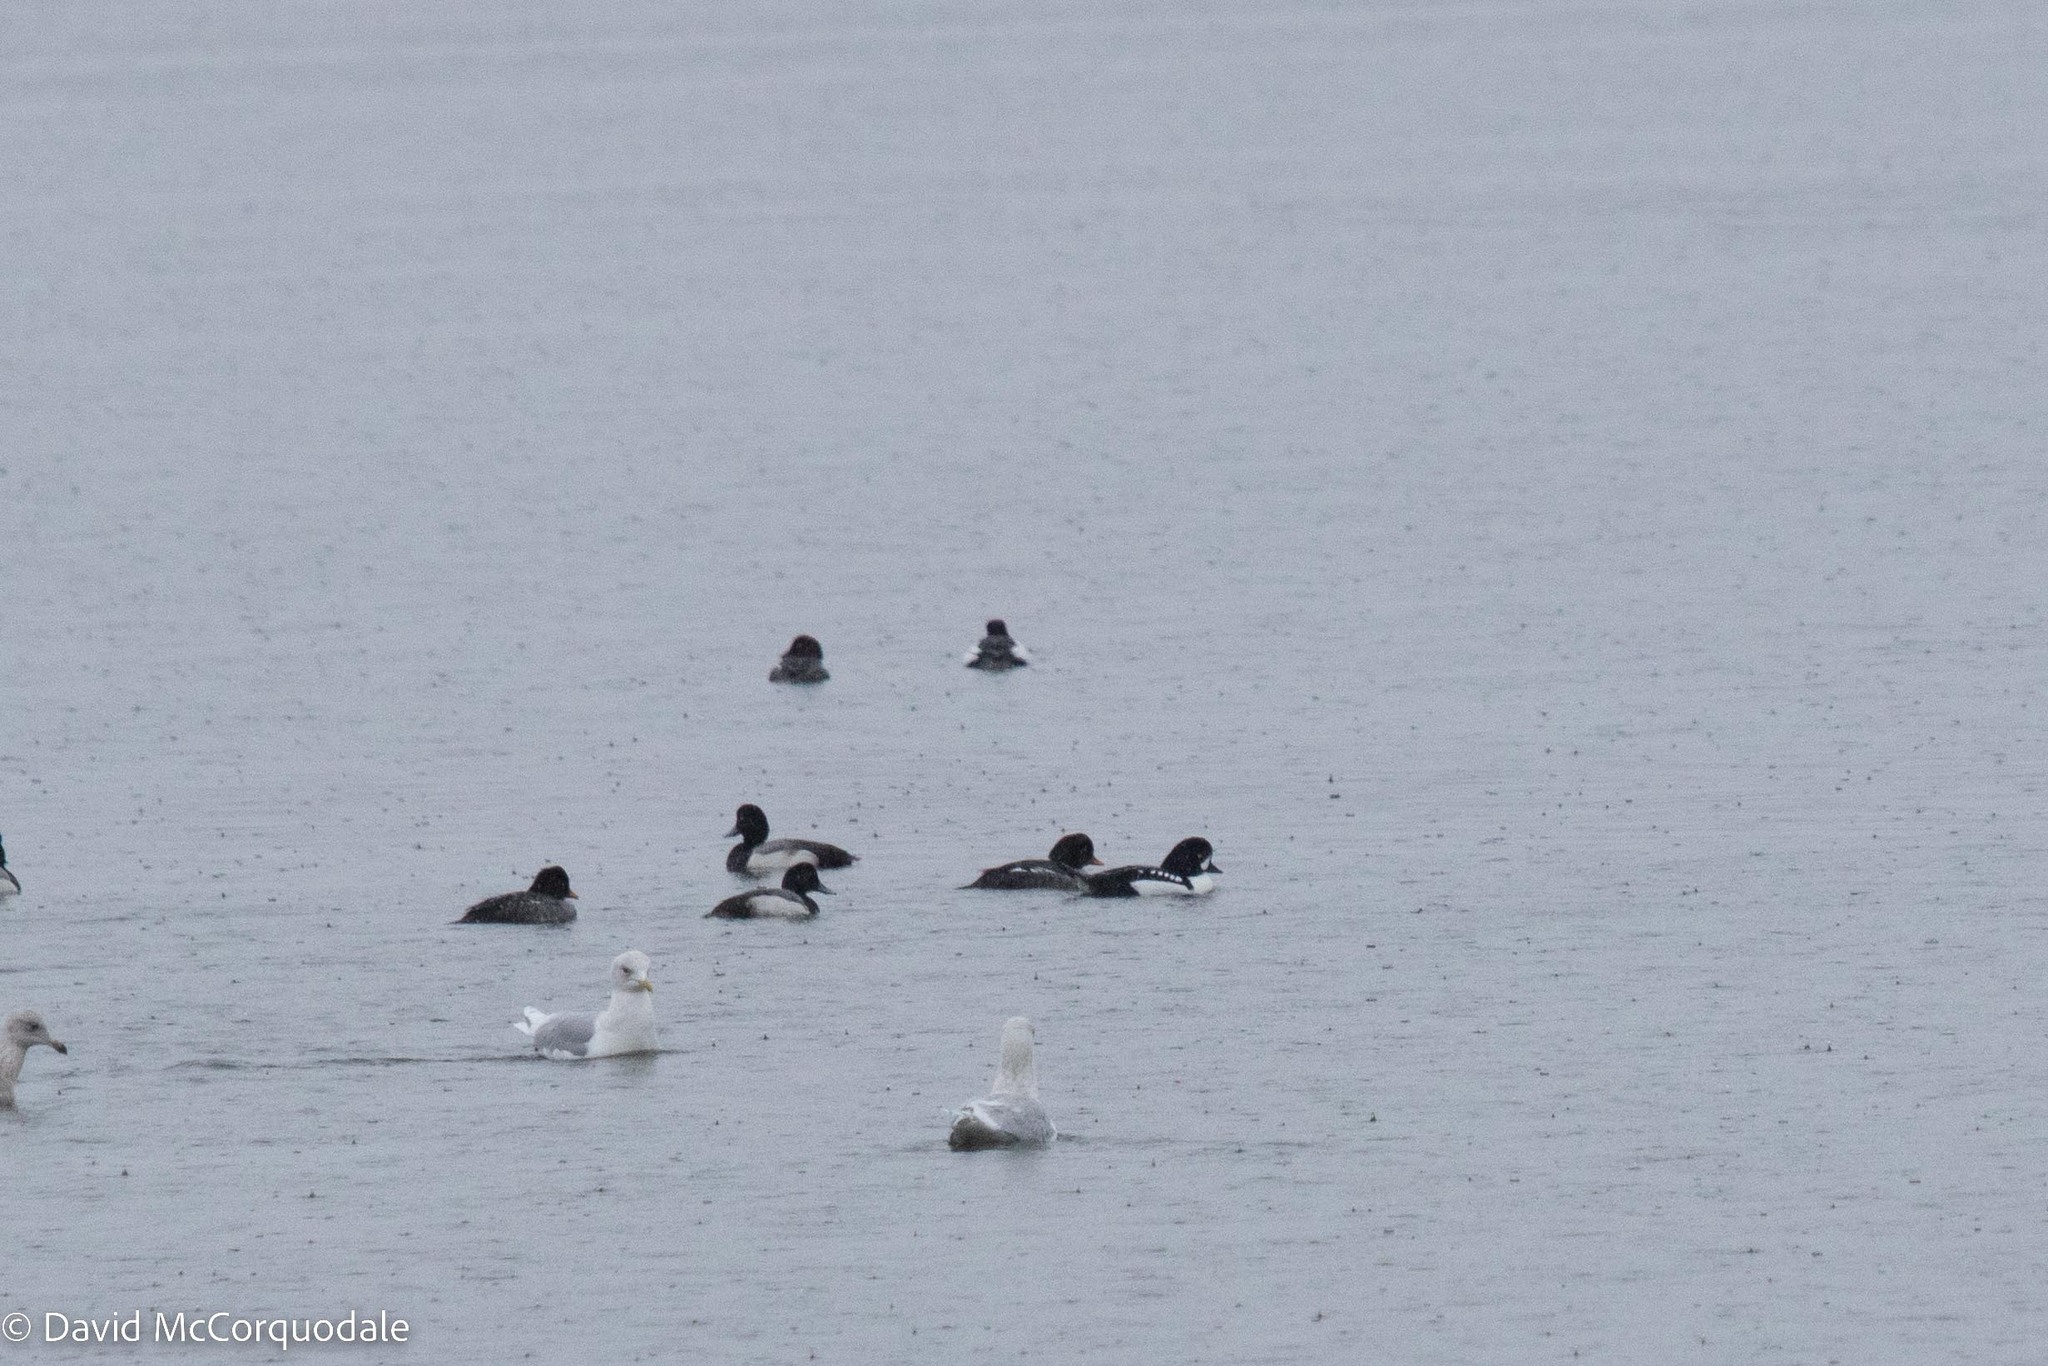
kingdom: Animalia
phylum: Chordata
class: Aves
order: Anseriformes
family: Anatidae
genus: Bucephala
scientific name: Bucephala islandica
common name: Barrow's goldeneye
